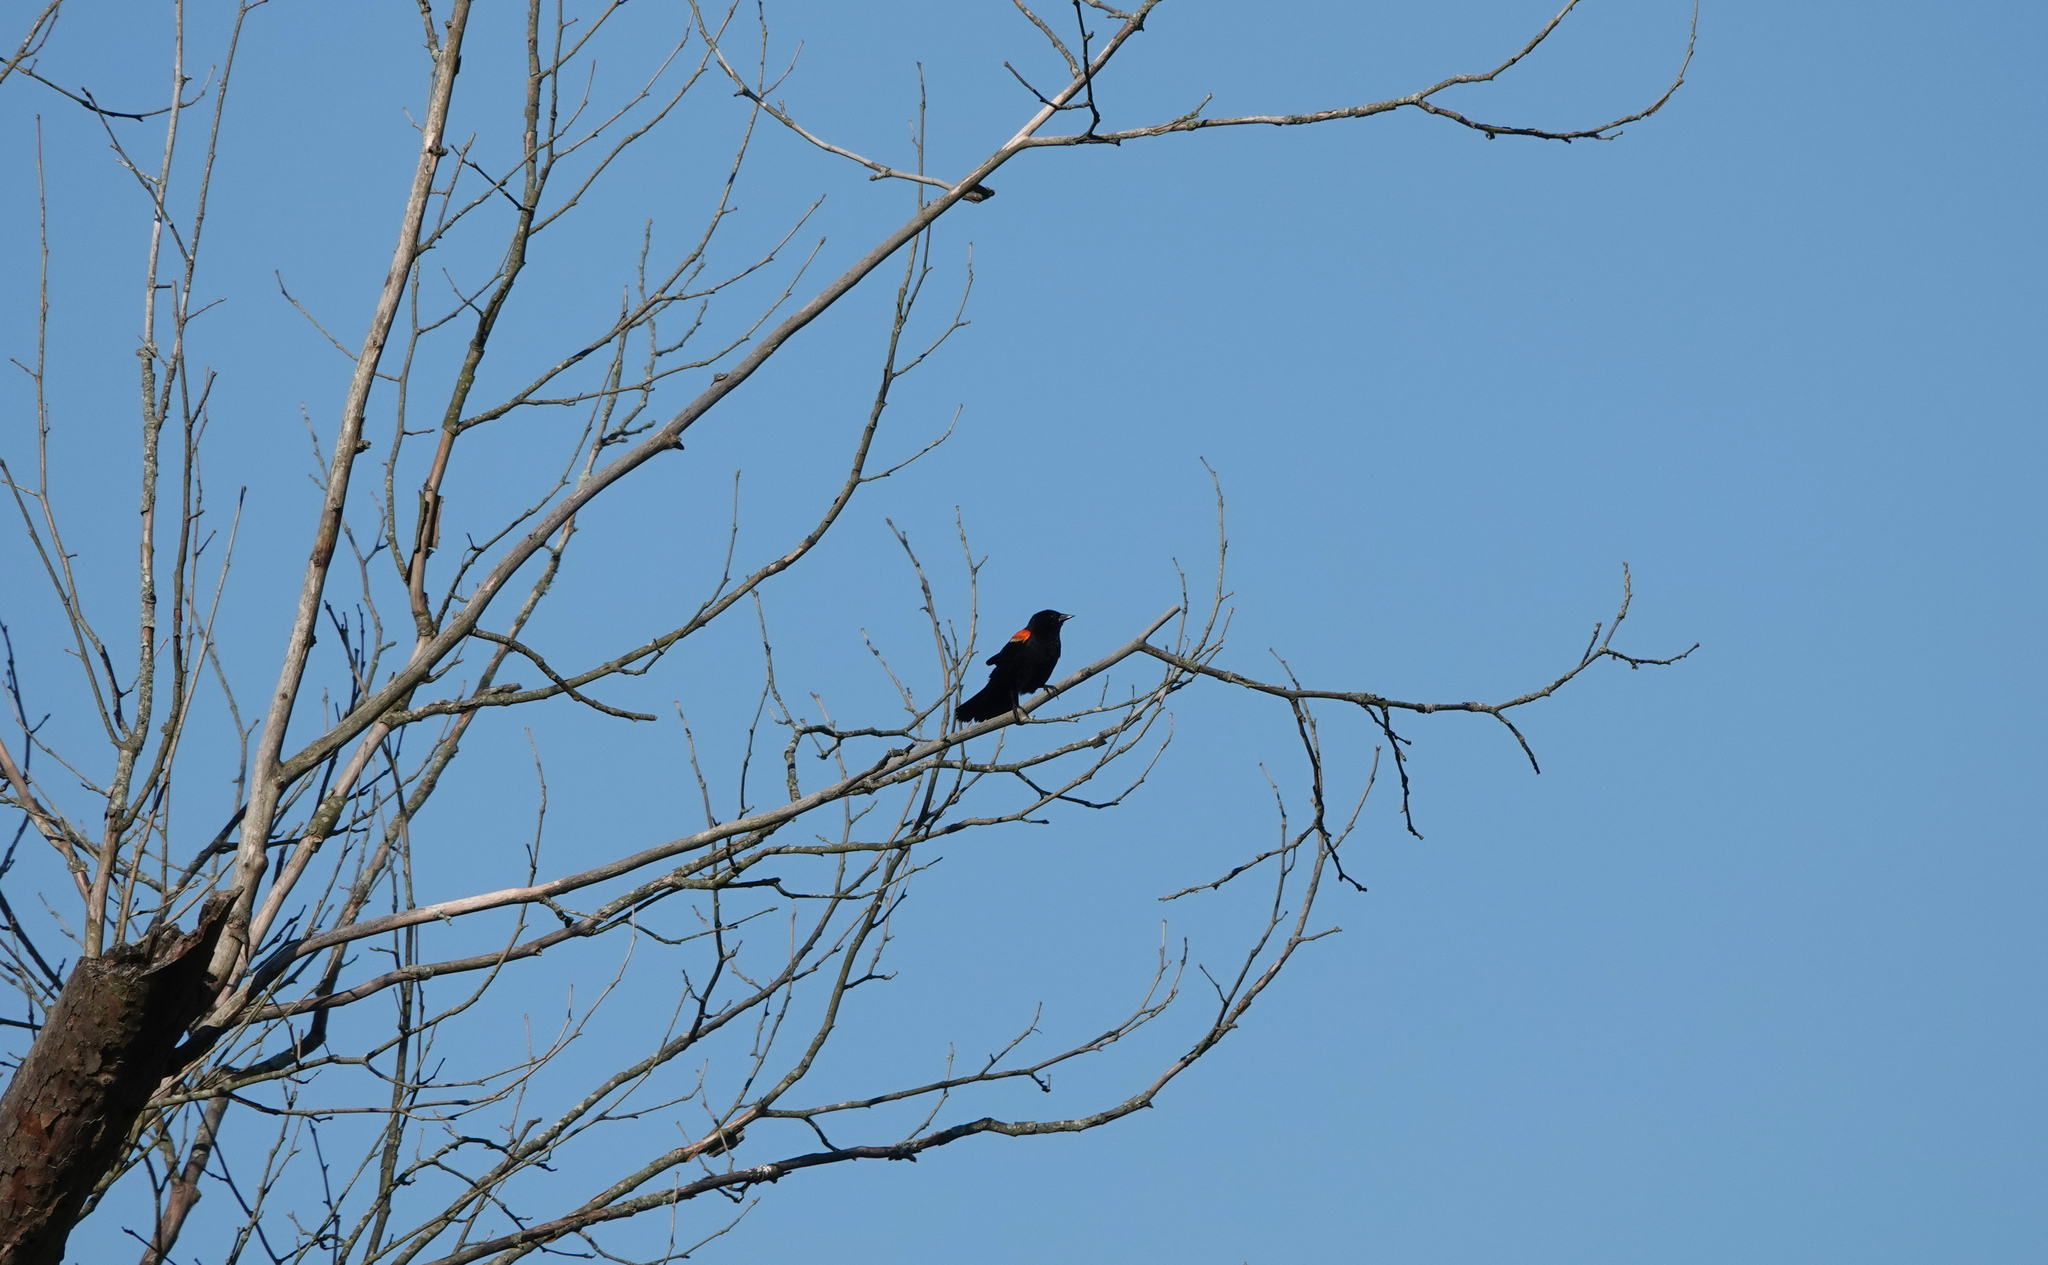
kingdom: Animalia
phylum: Chordata
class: Aves
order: Passeriformes
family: Icteridae
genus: Agelaius
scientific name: Agelaius phoeniceus
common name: Red-winged blackbird
